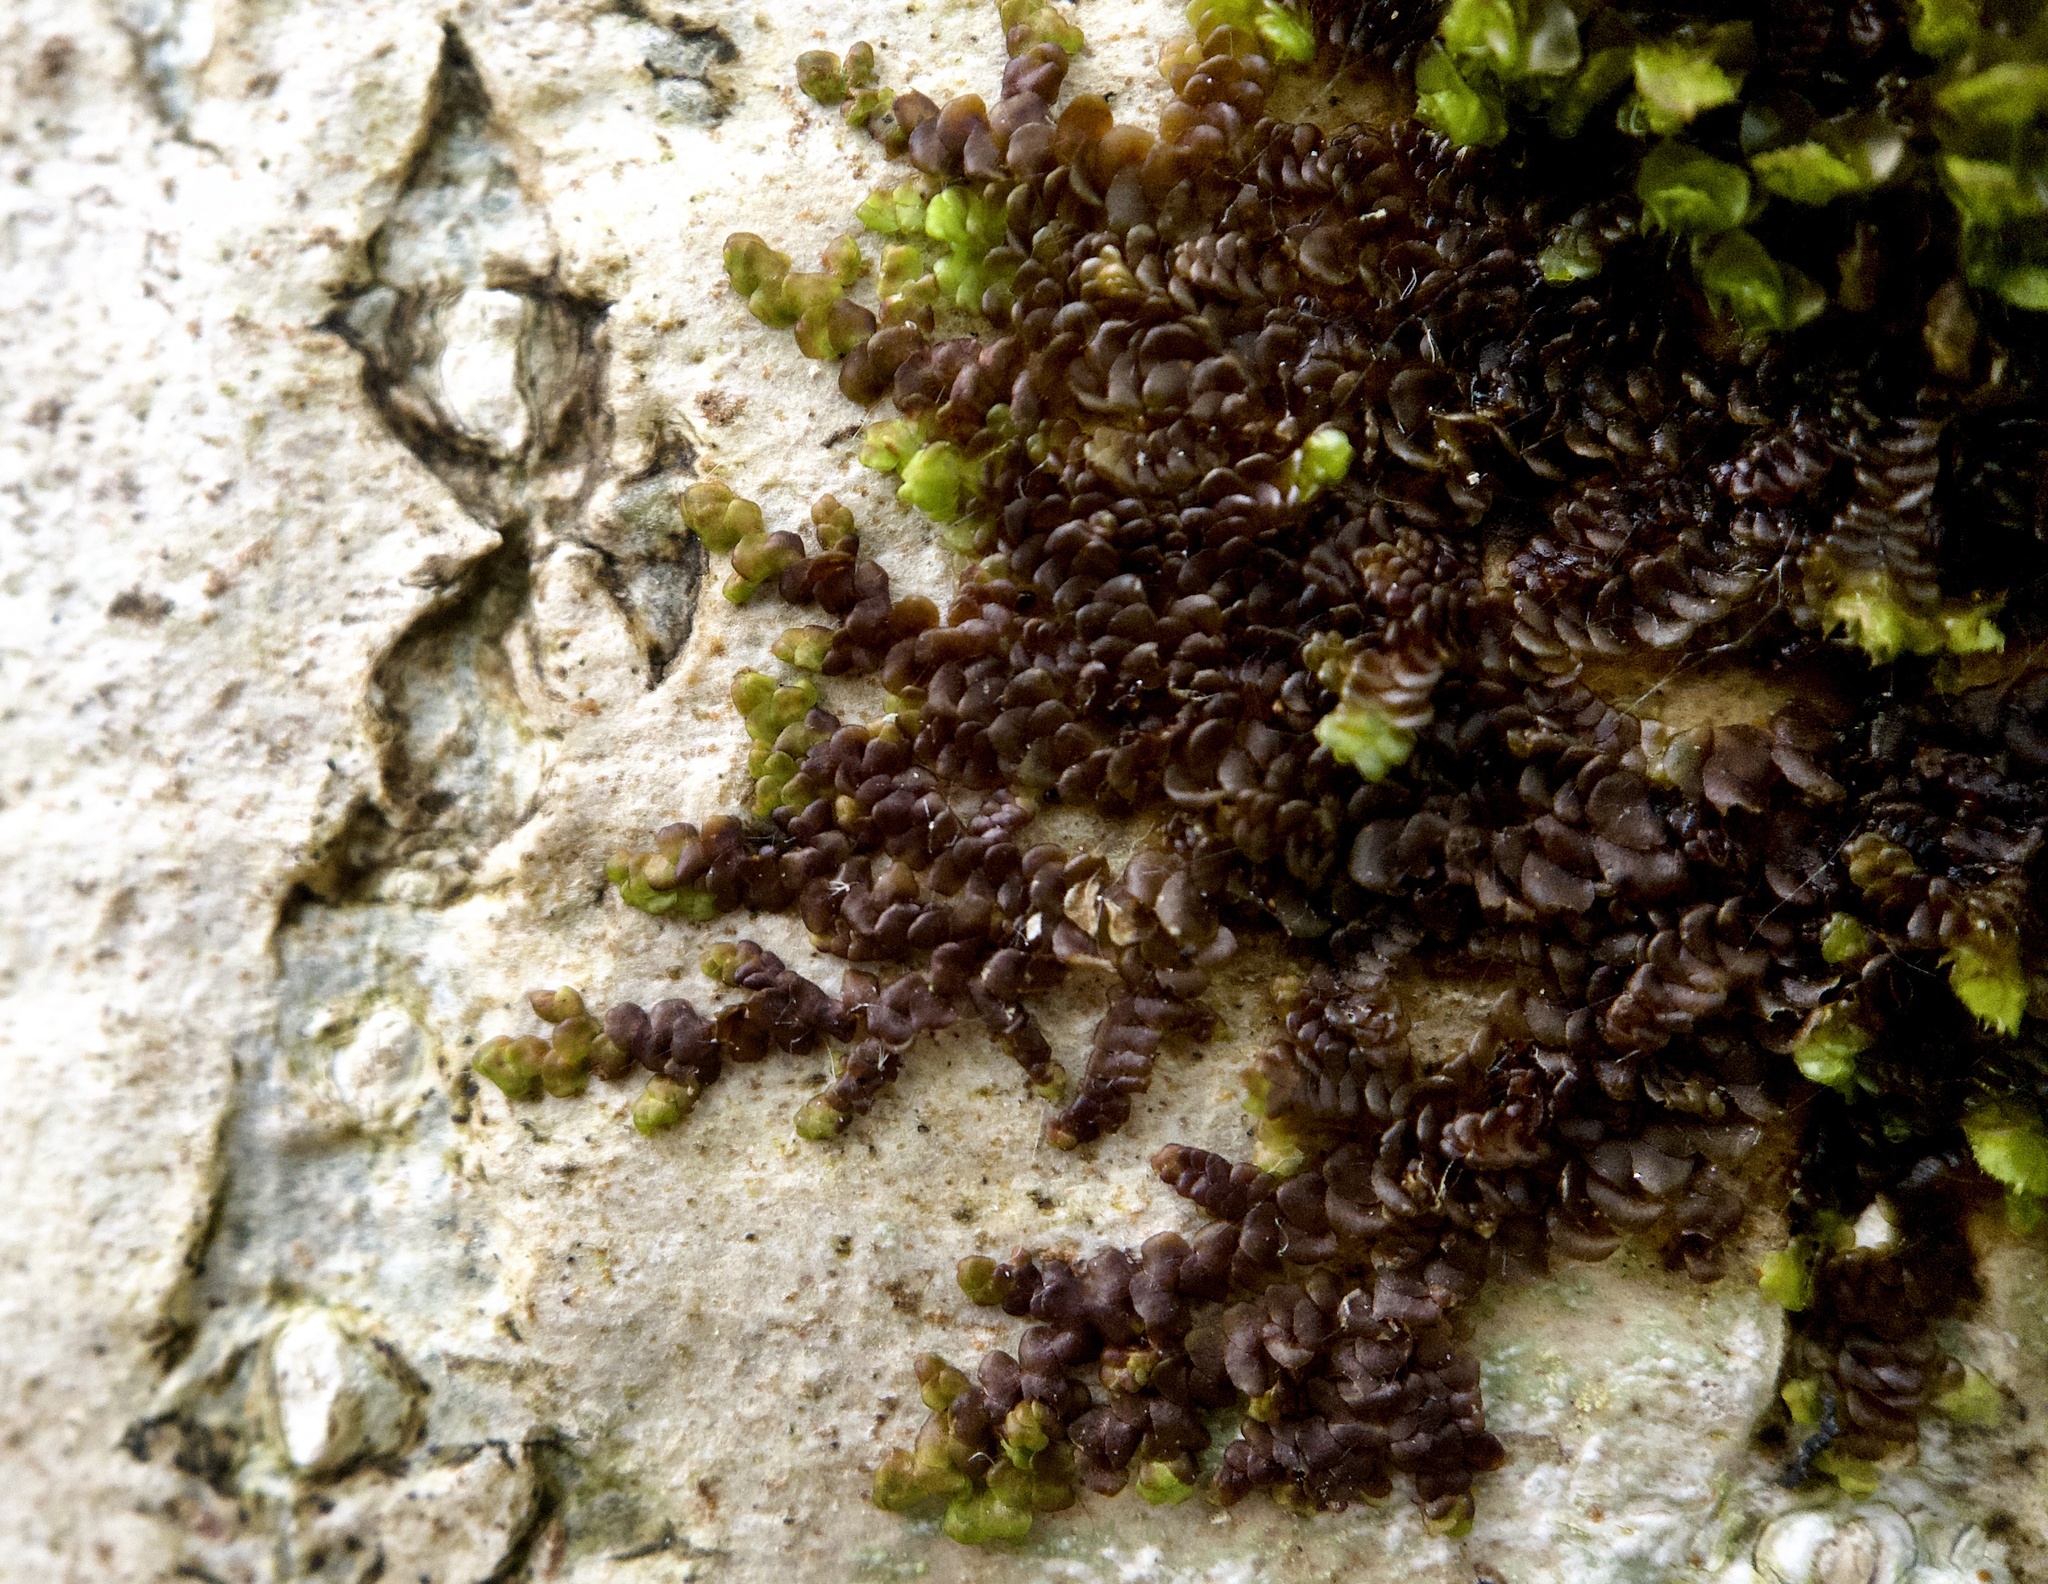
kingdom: Plantae
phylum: Marchantiophyta
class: Jungermanniopsida
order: Porellales
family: Frullaniaceae
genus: Frullania
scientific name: Frullania dilatata
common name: Dilated scalewort
